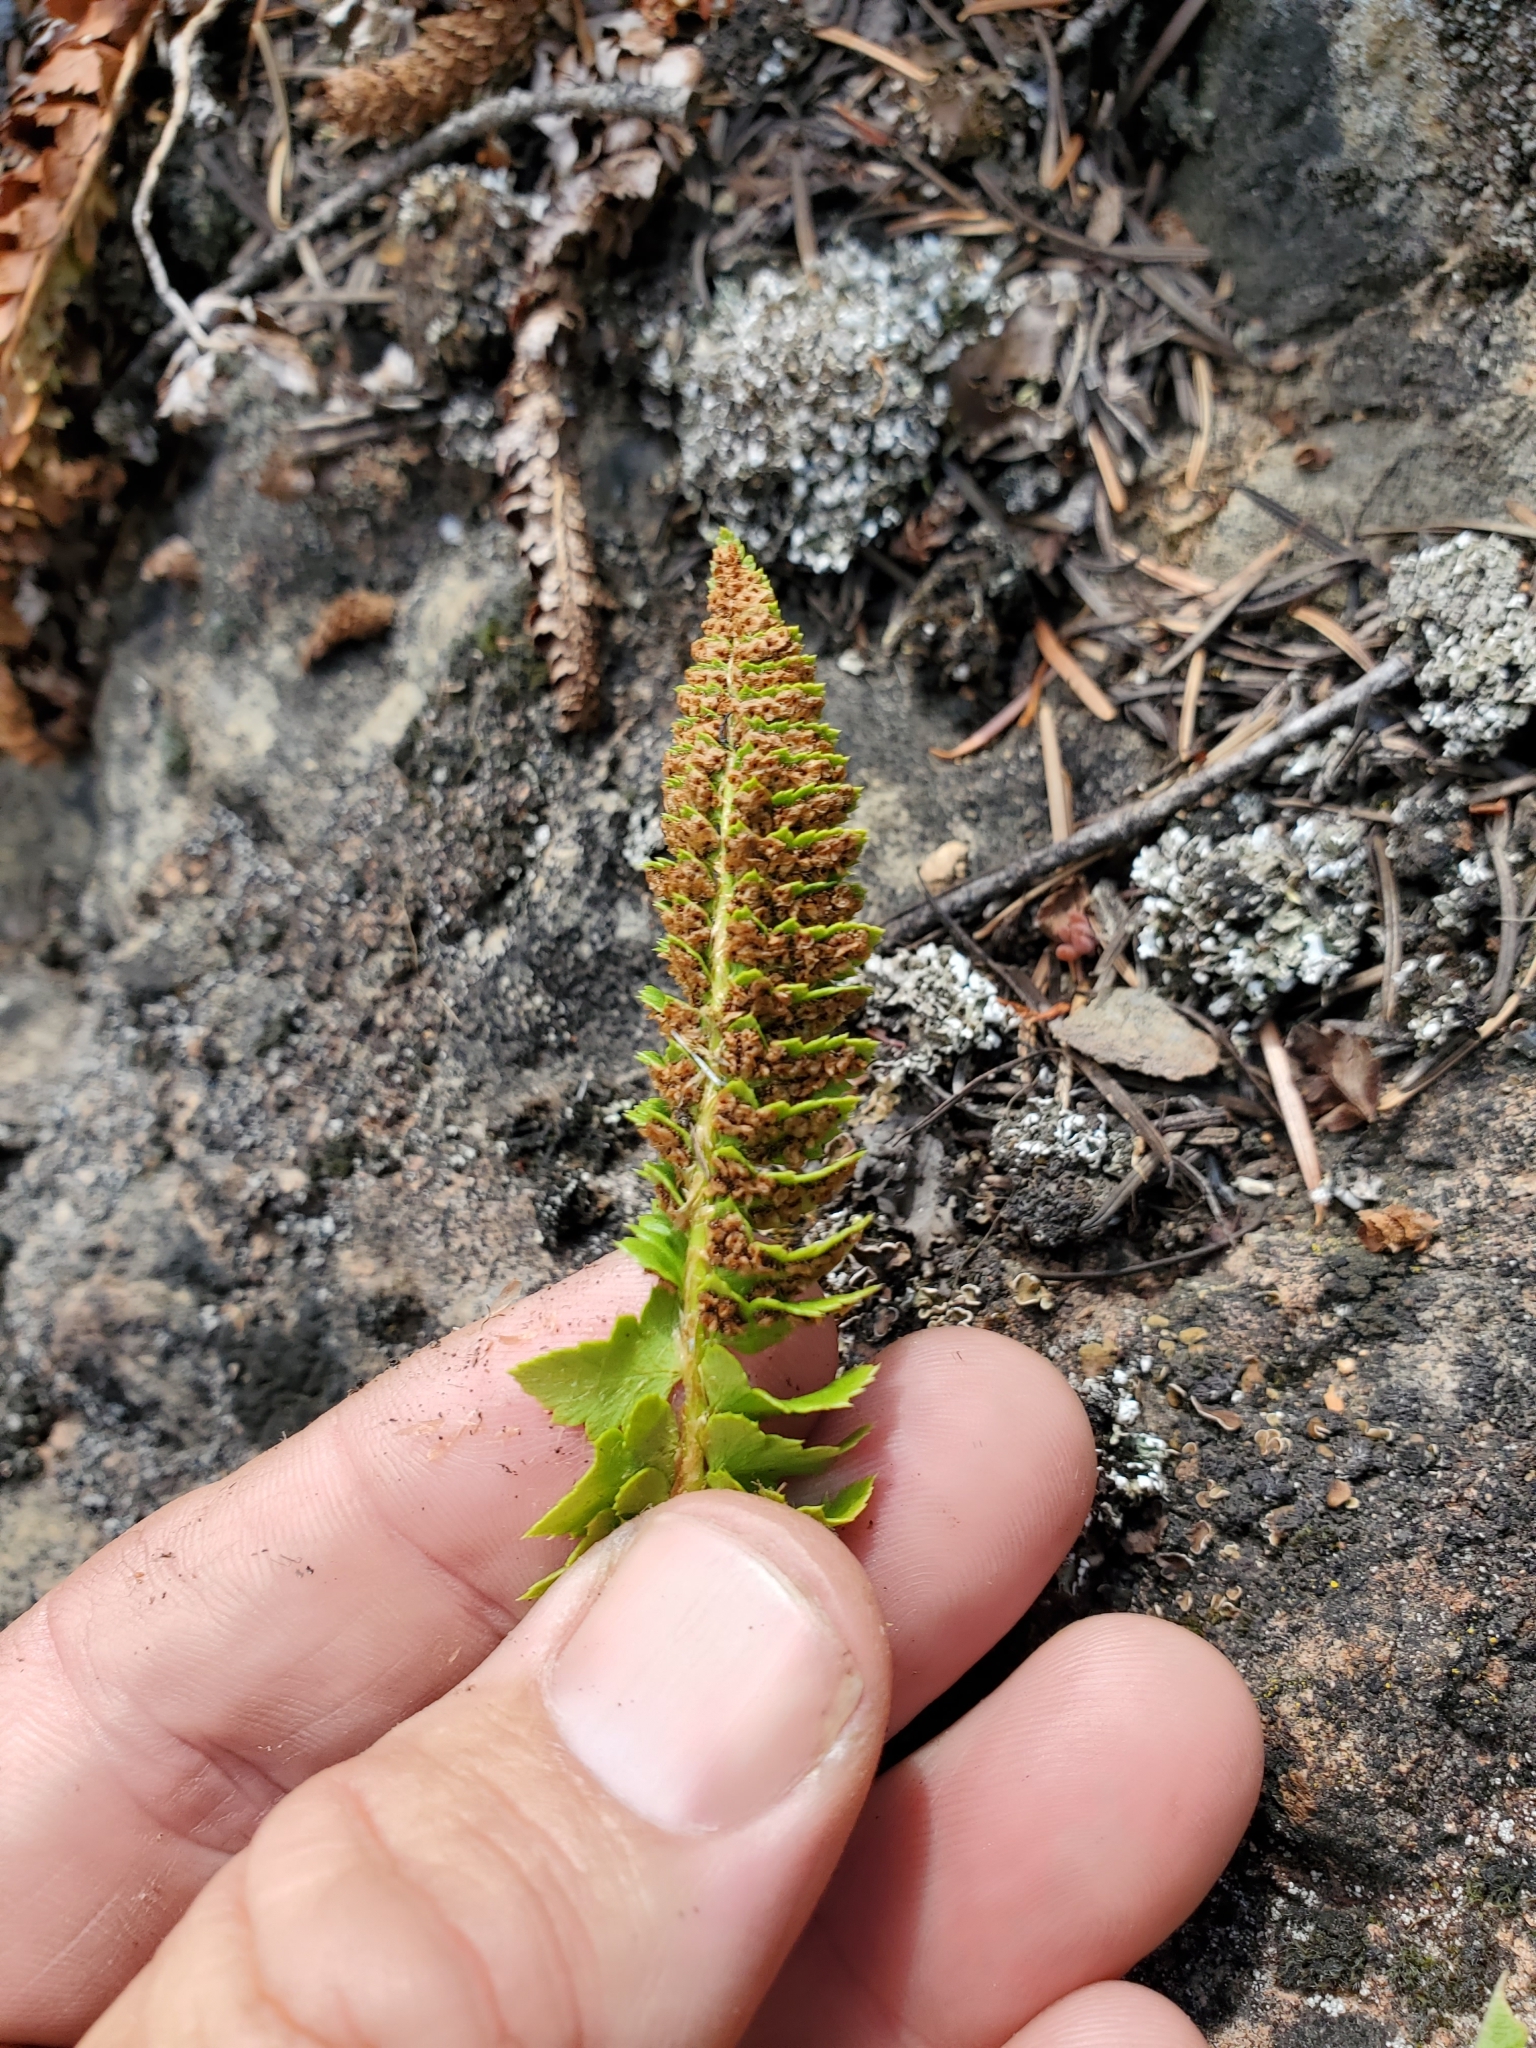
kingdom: Plantae
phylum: Tracheophyta
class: Polypodiopsida
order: Polypodiales
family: Dryopteridaceae
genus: Polystichum
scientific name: Polystichum kruckebergii
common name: Kruckeberg's holly fern
